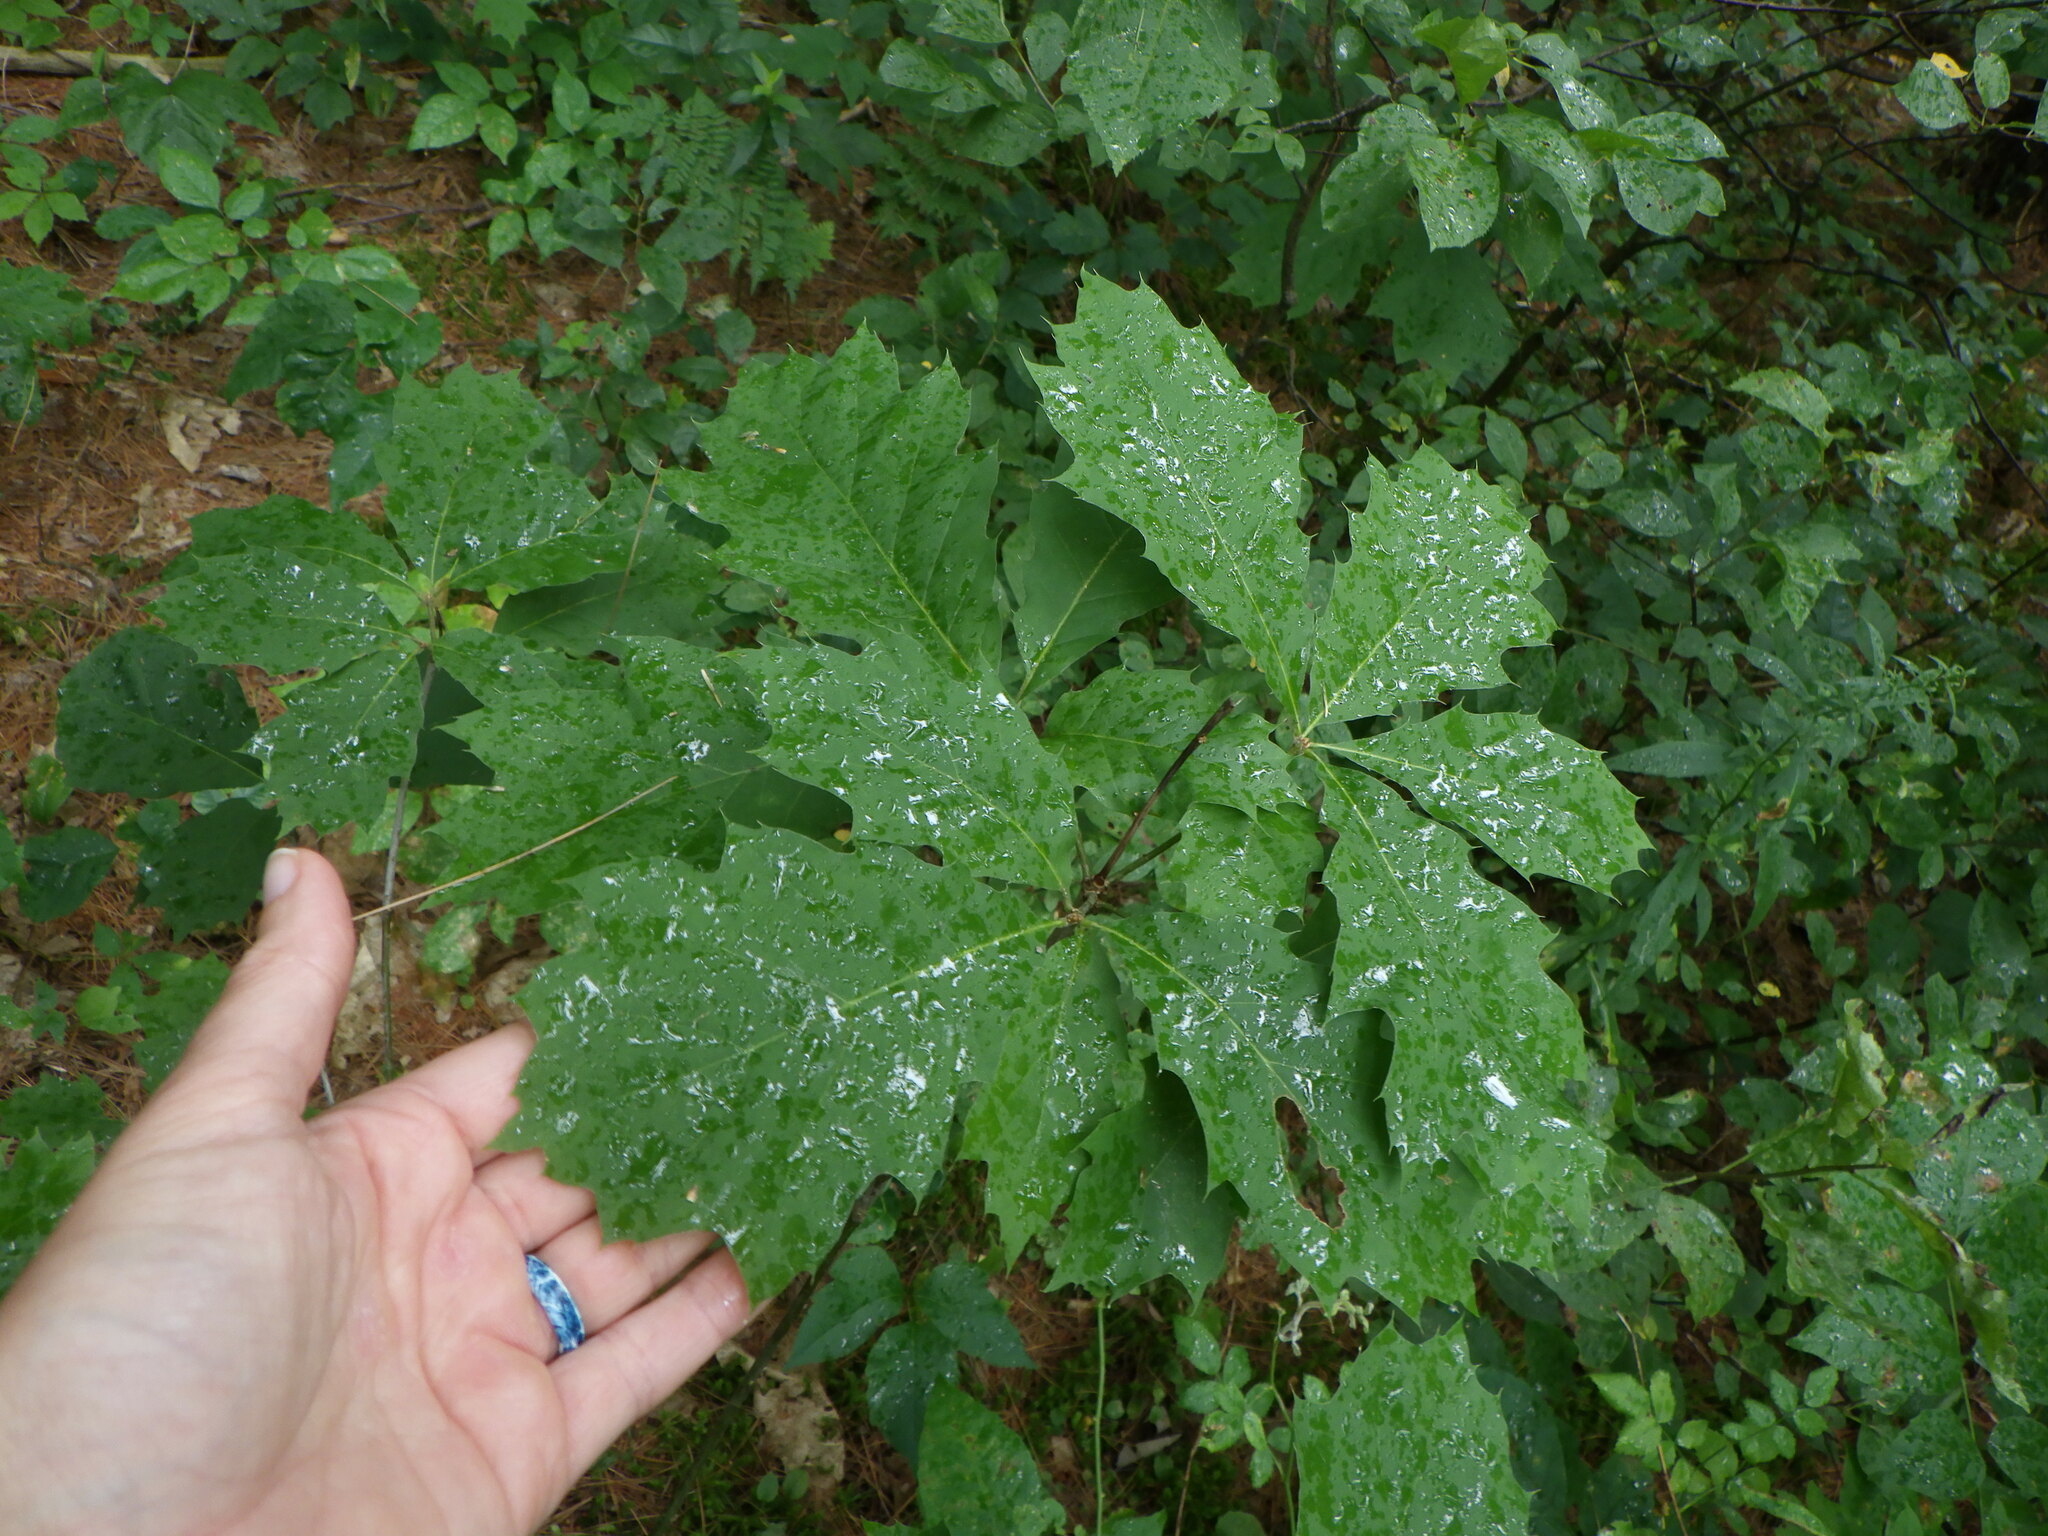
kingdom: Plantae
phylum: Tracheophyta
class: Magnoliopsida
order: Fagales
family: Fagaceae
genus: Quercus
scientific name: Quercus rubra
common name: Red oak
